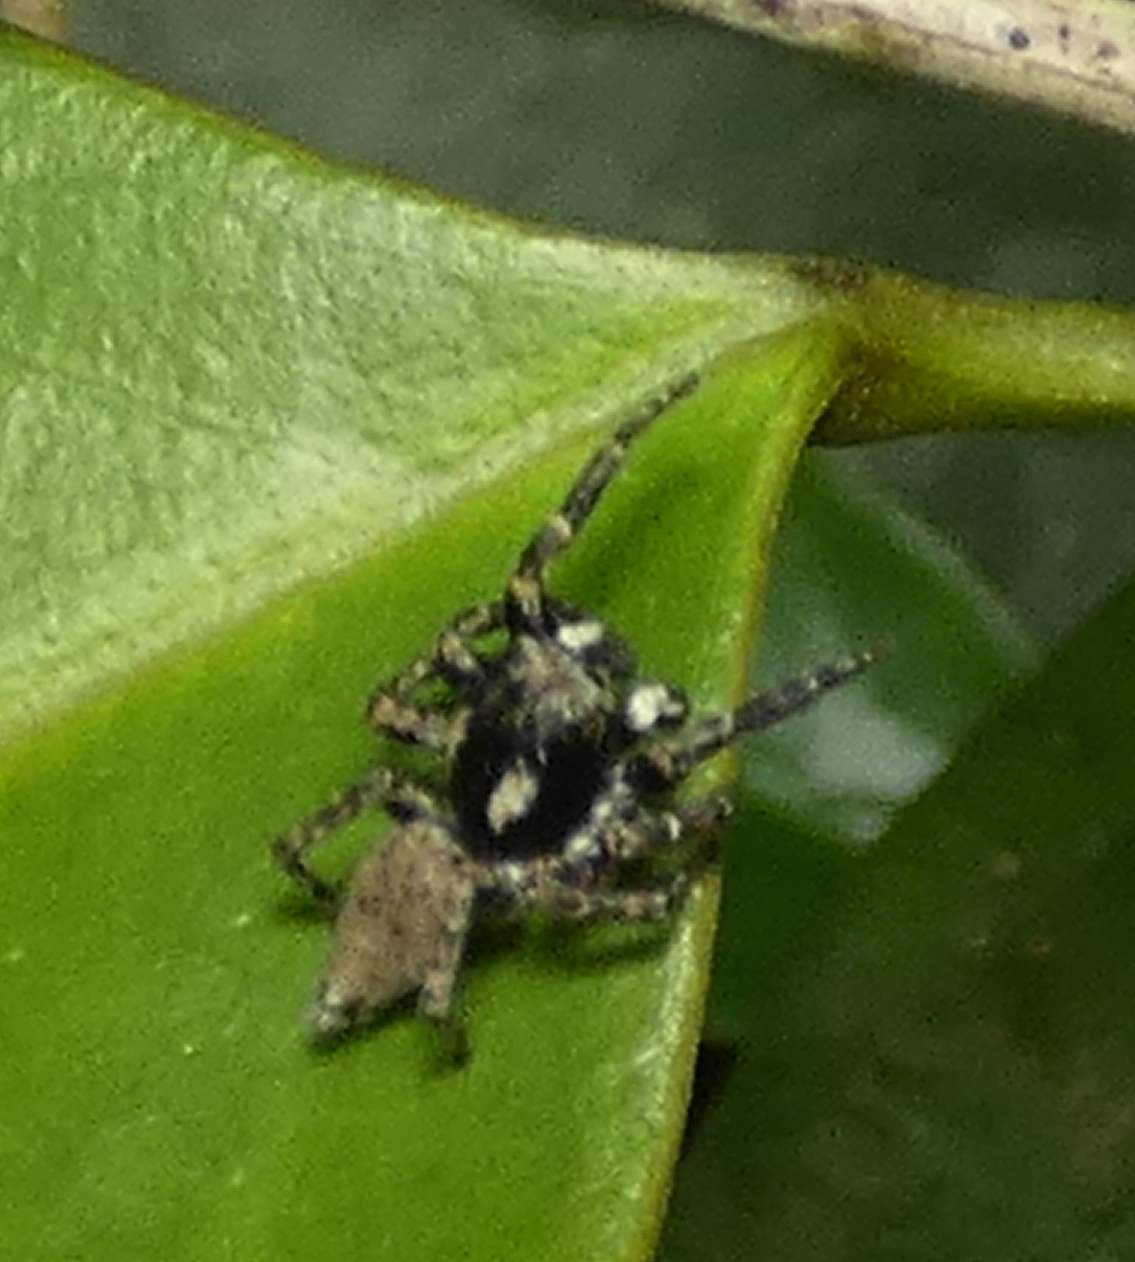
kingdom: Animalia
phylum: Arthropoda
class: Arachnida
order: Araneae
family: Salticidae
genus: Sumampattus
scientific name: Sumampattus quinqueradiatus
